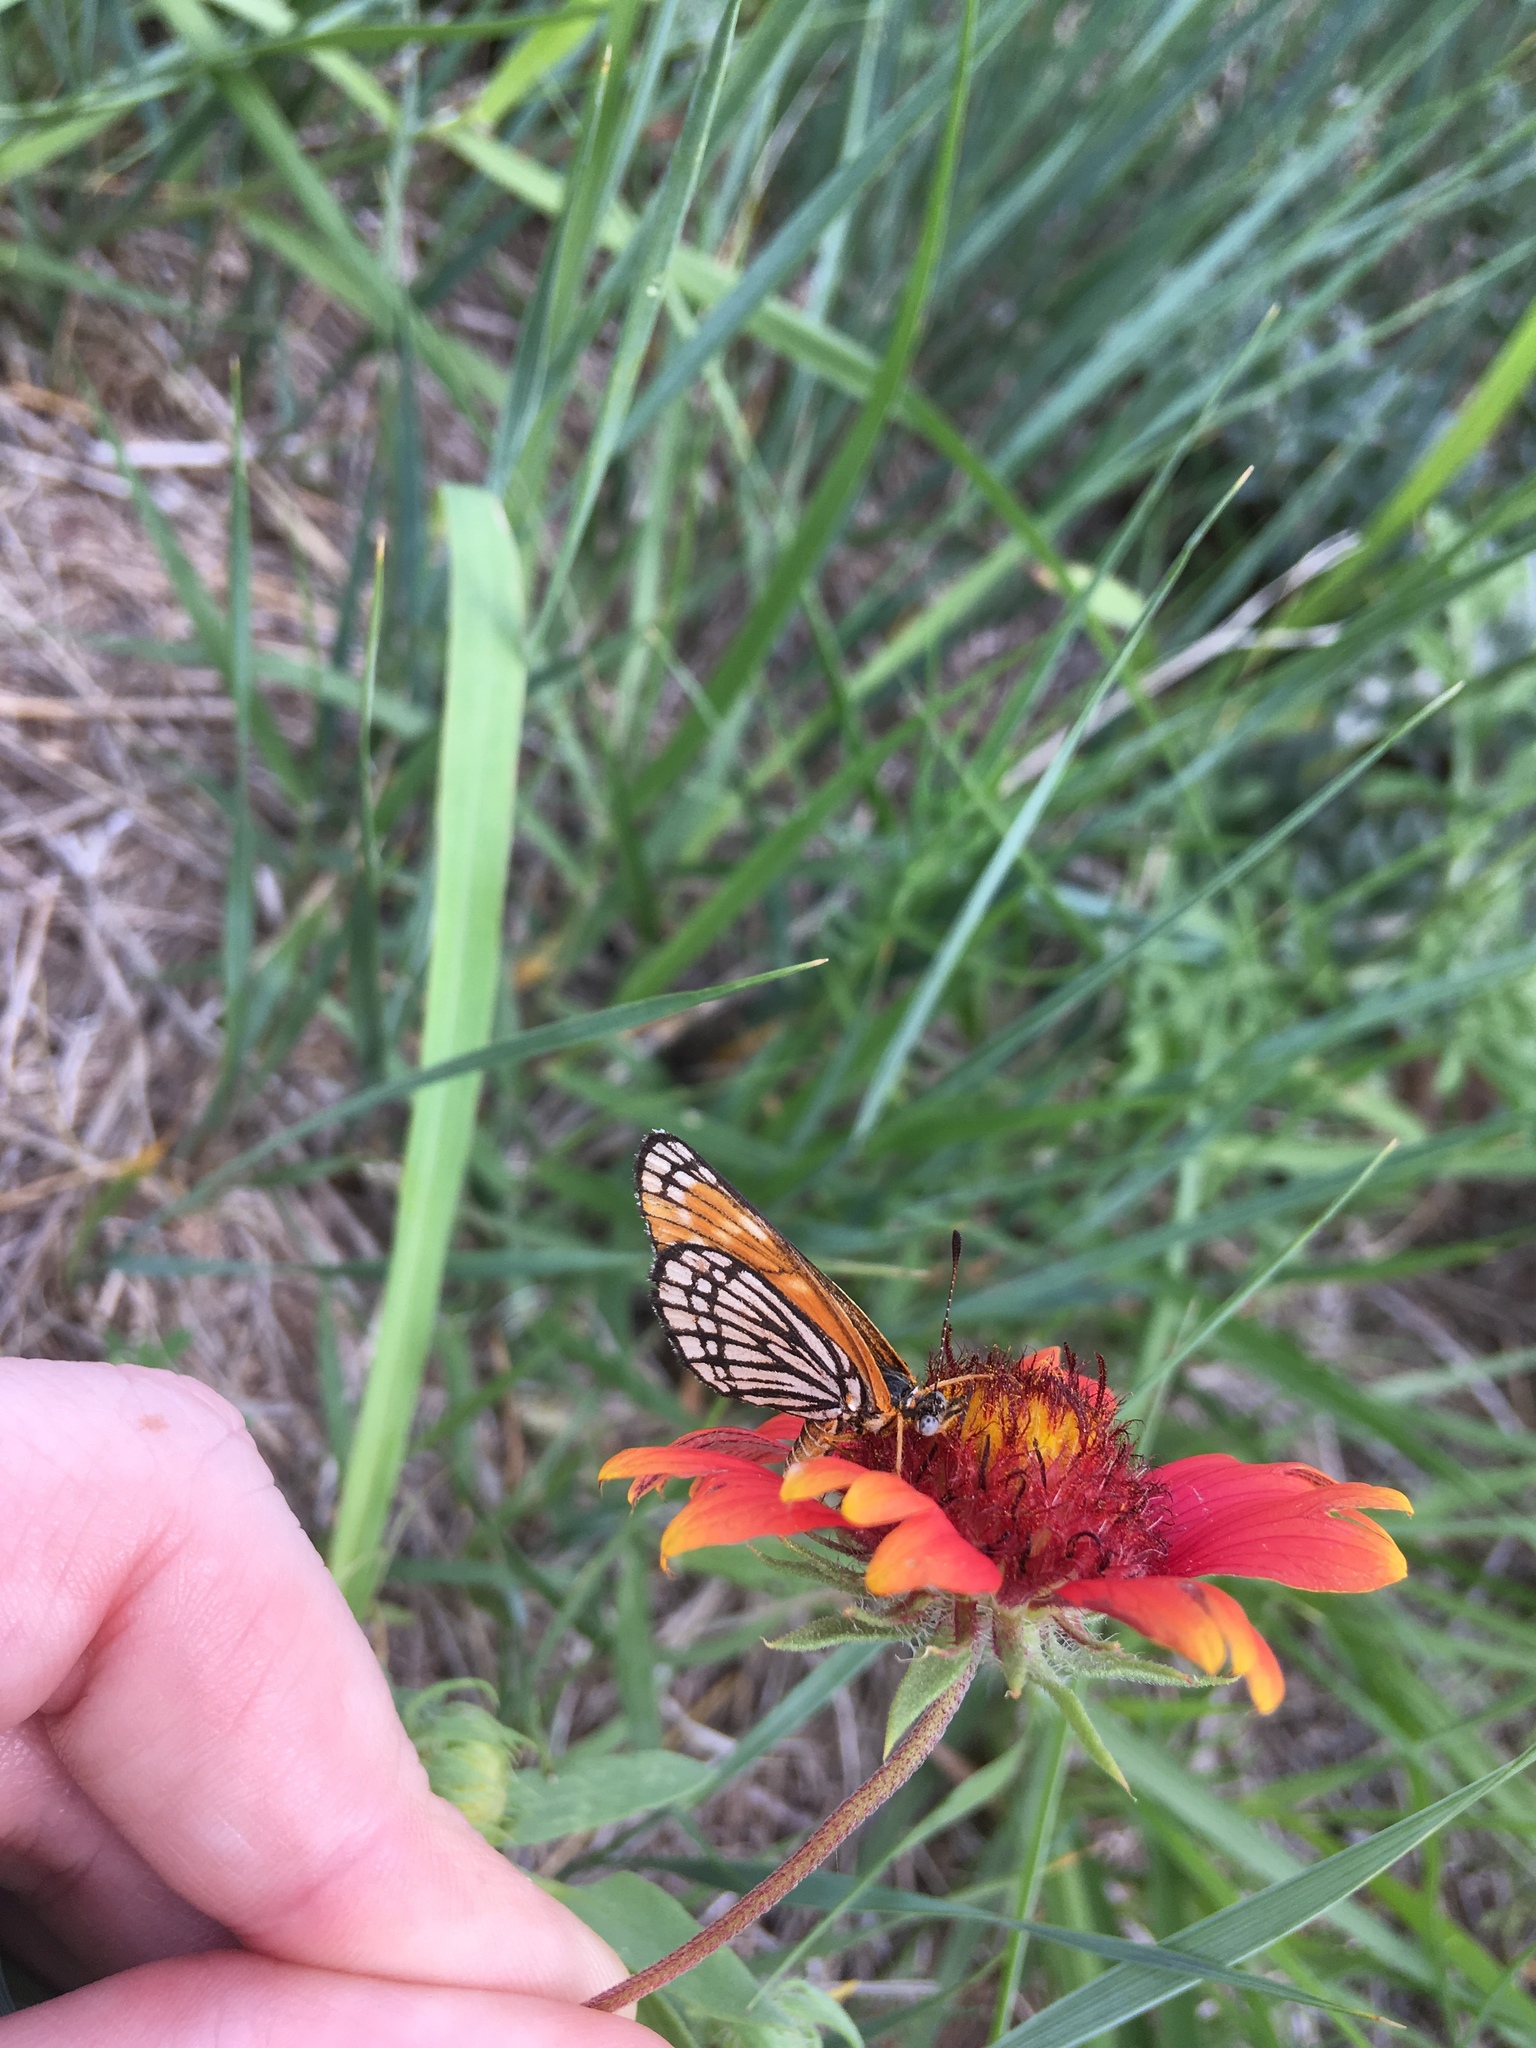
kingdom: Animalia
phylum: Arthropoda
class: Insecta
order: Lepidoptera
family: Nymphalidae
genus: Thessalia
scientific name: Thessalia leanira
